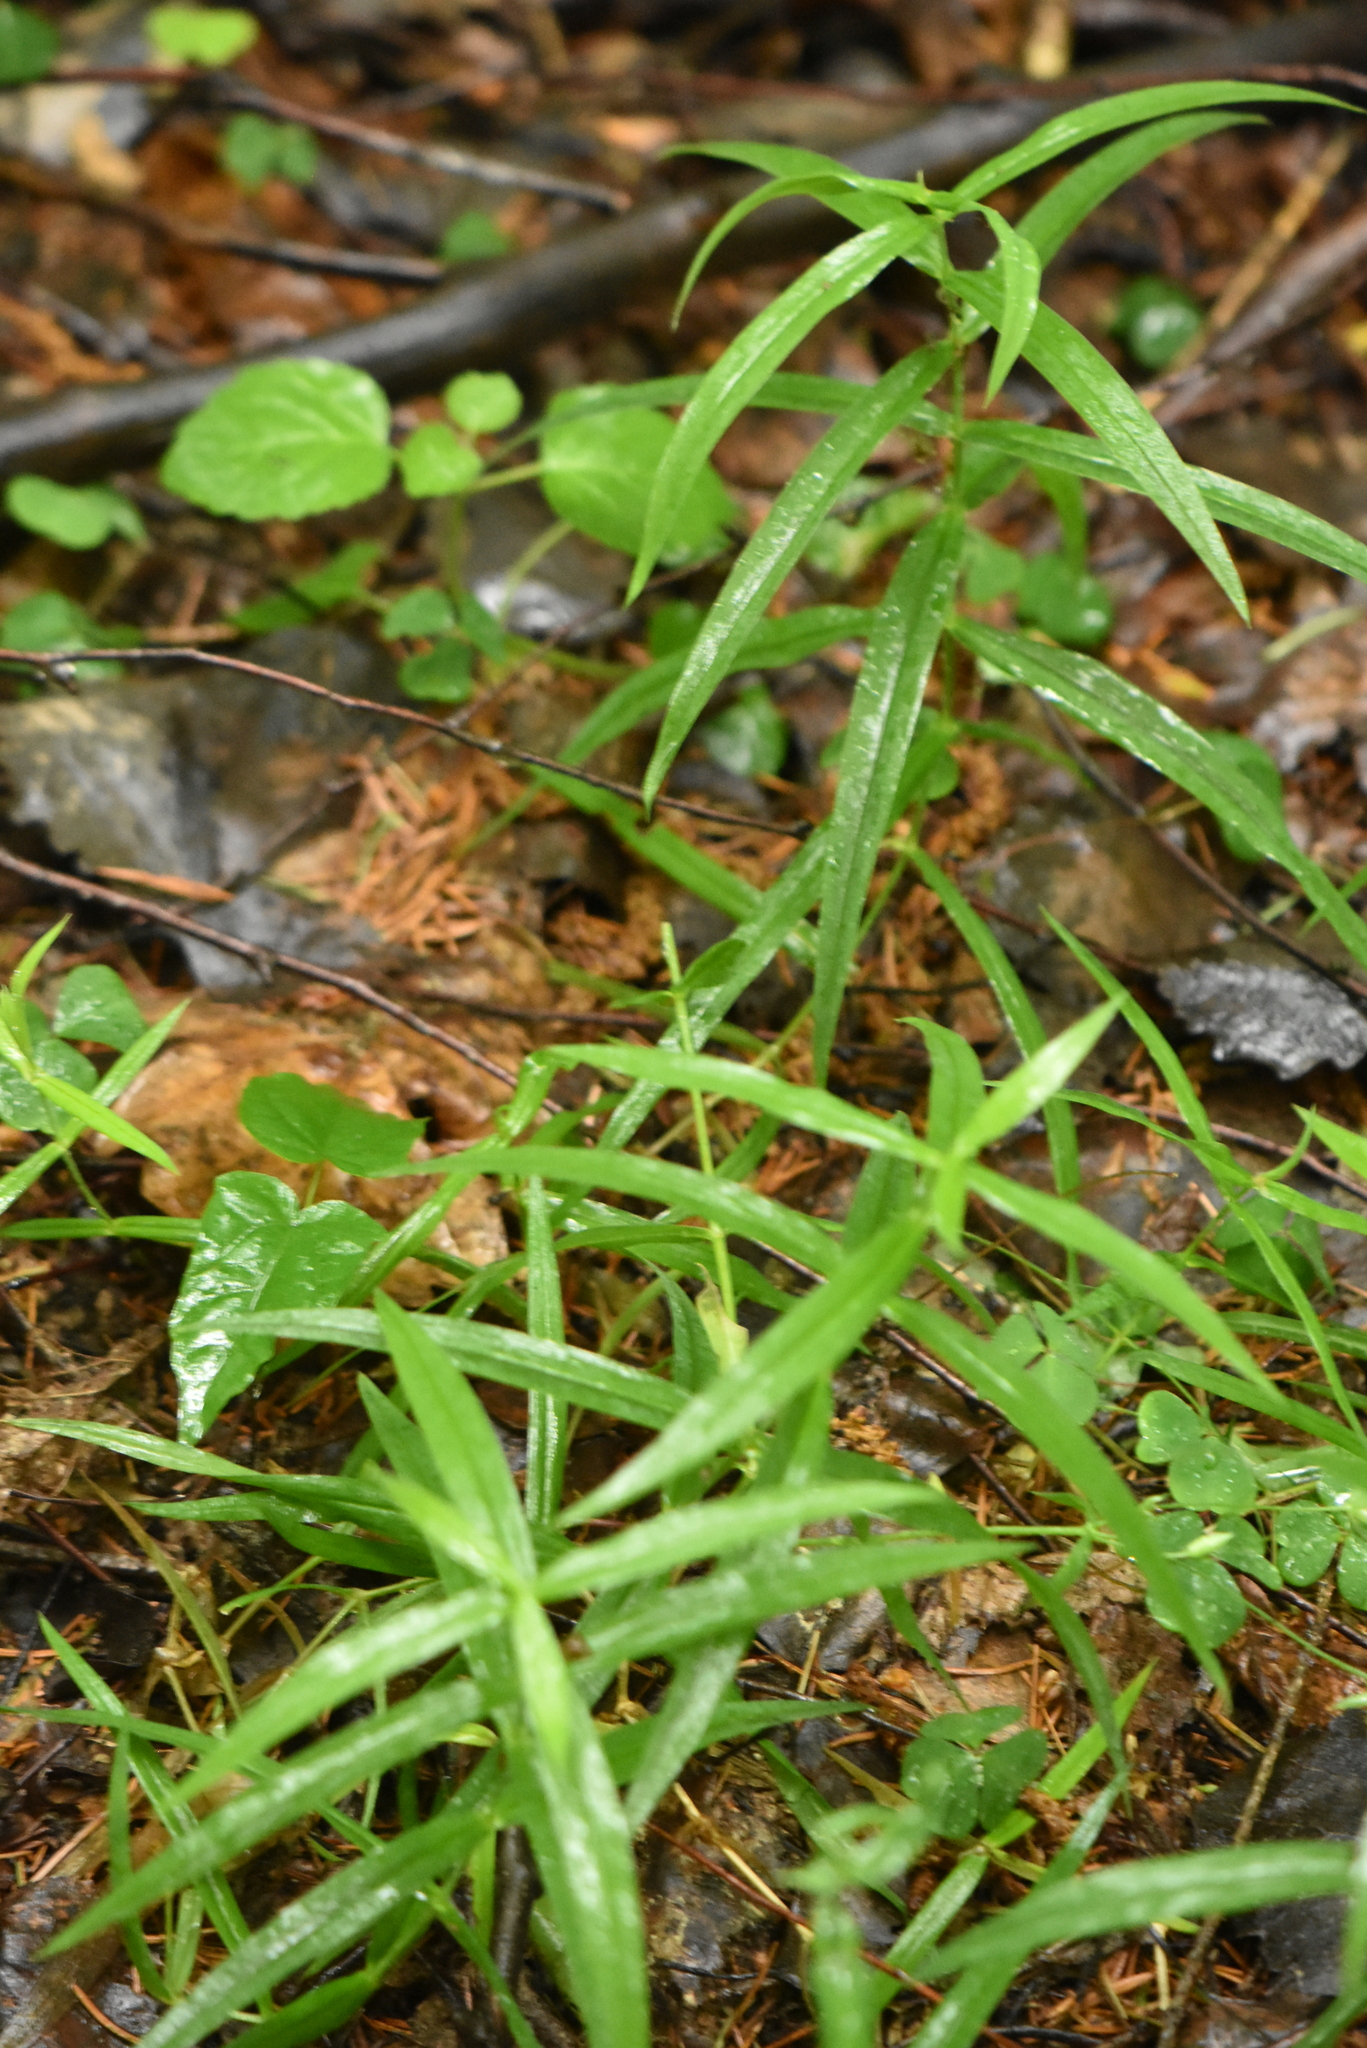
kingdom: Plantae
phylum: Tracheophyta
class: Magnoliopsida
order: Caryophyllales
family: Caryophyllaceae
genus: Rabelera
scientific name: Rabelera holostea
